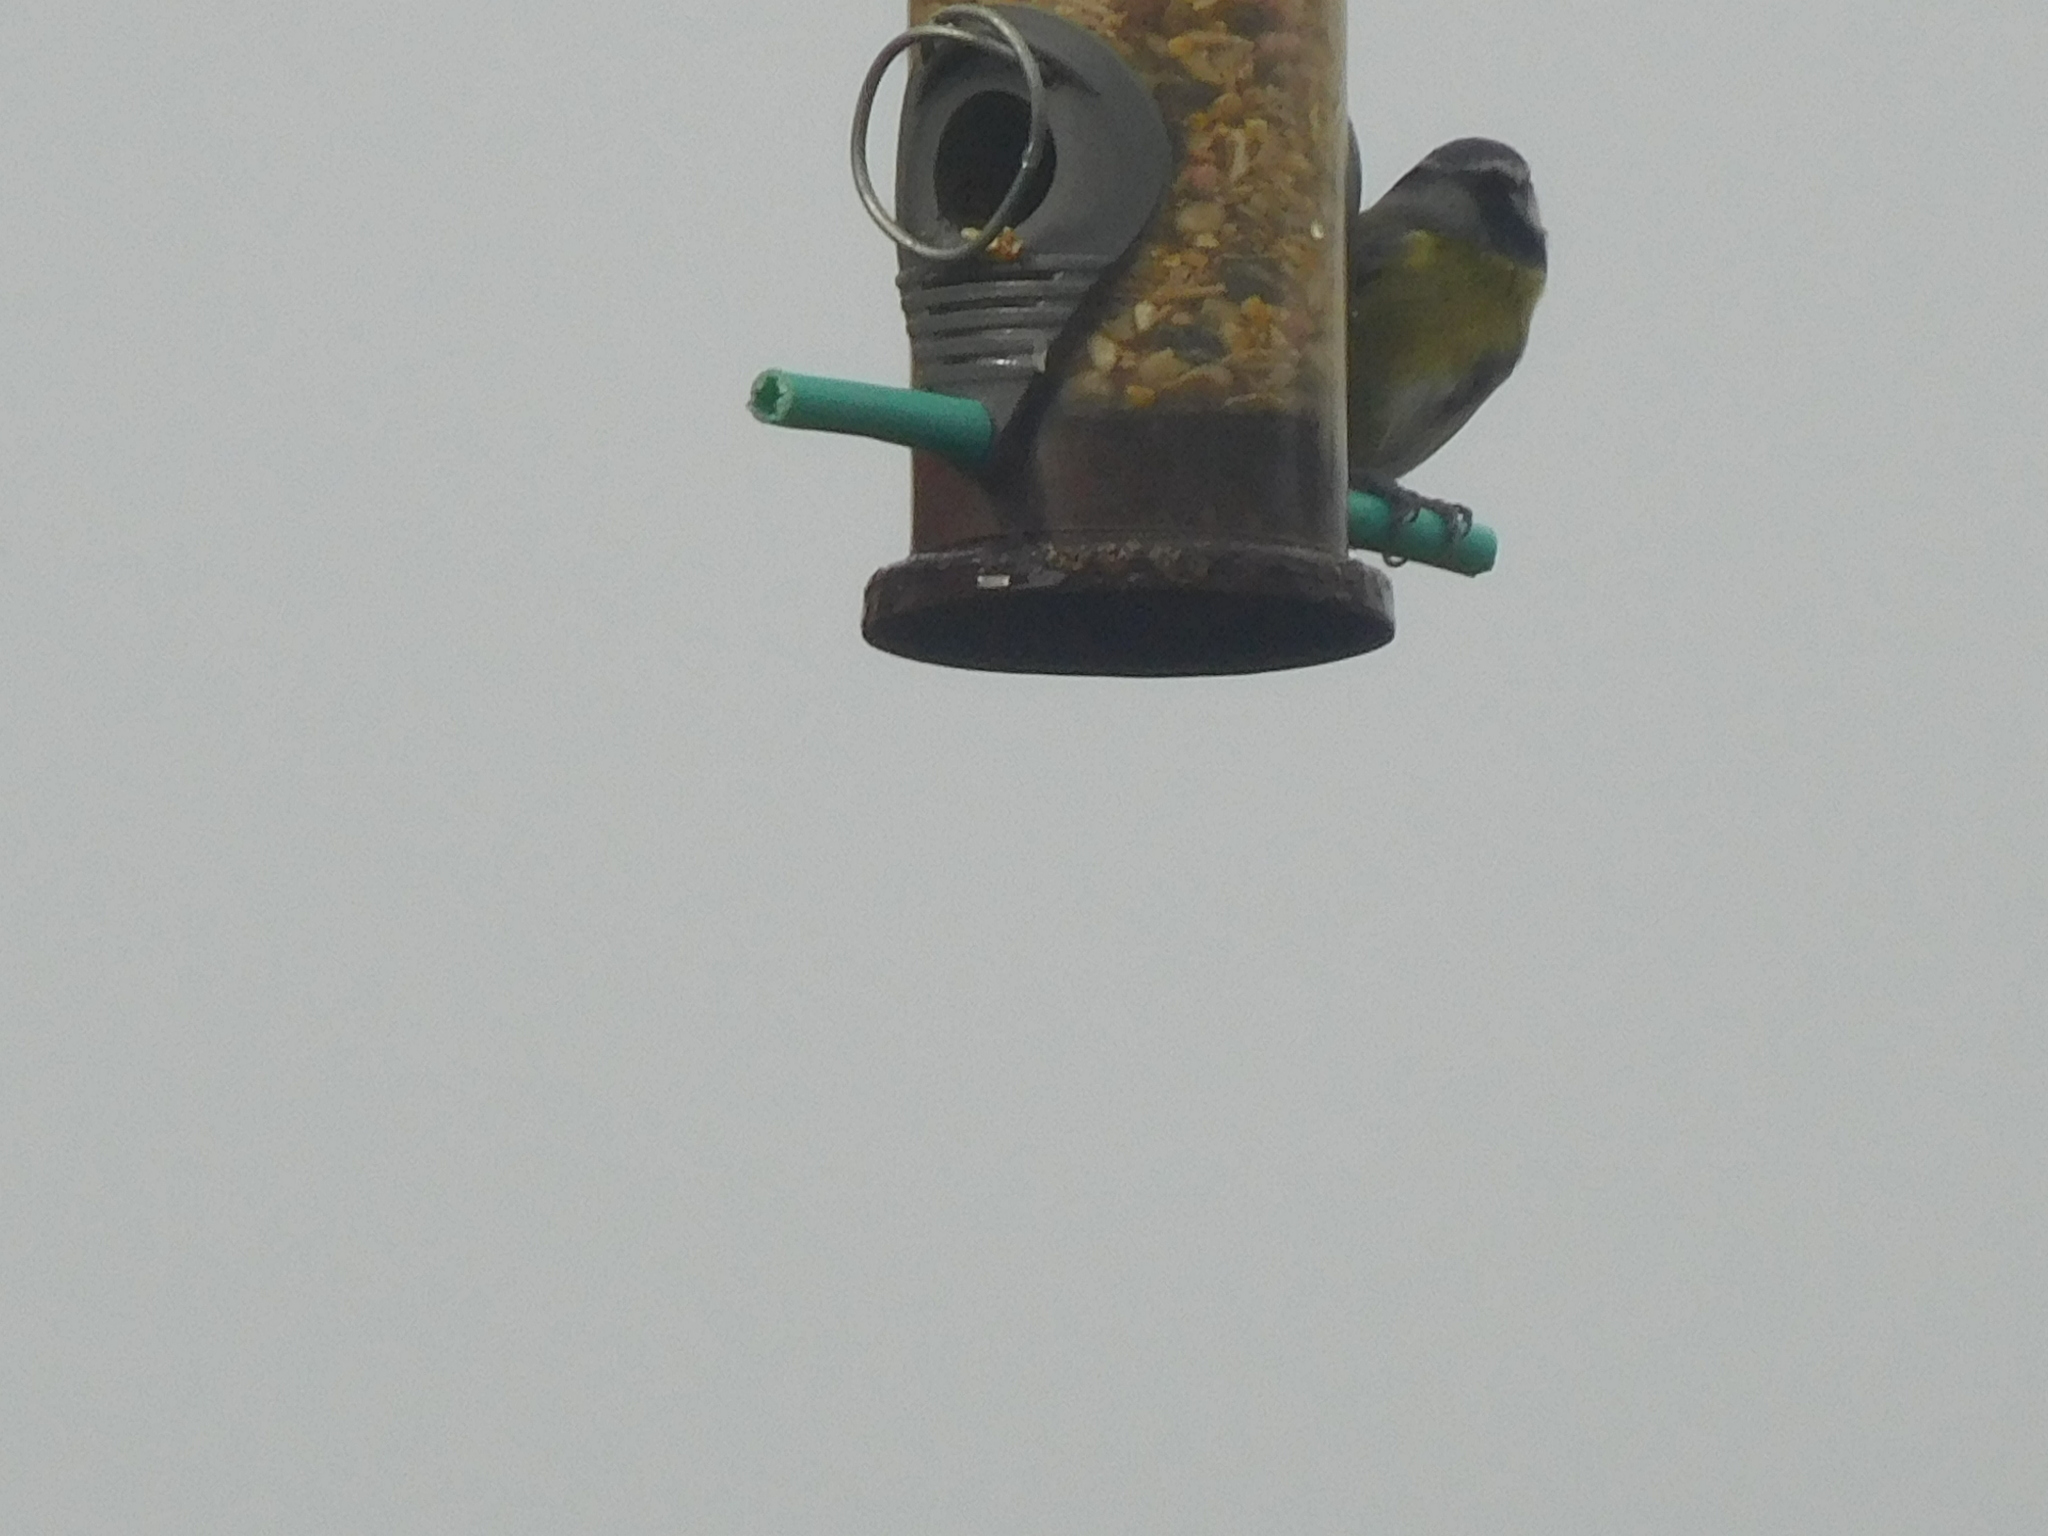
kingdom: Animalia
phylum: Chordata
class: Aves
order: Passeriformes
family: Paridae
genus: Cyanistes
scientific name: Cyanistes caeruleus
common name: Eurasian blue tit
